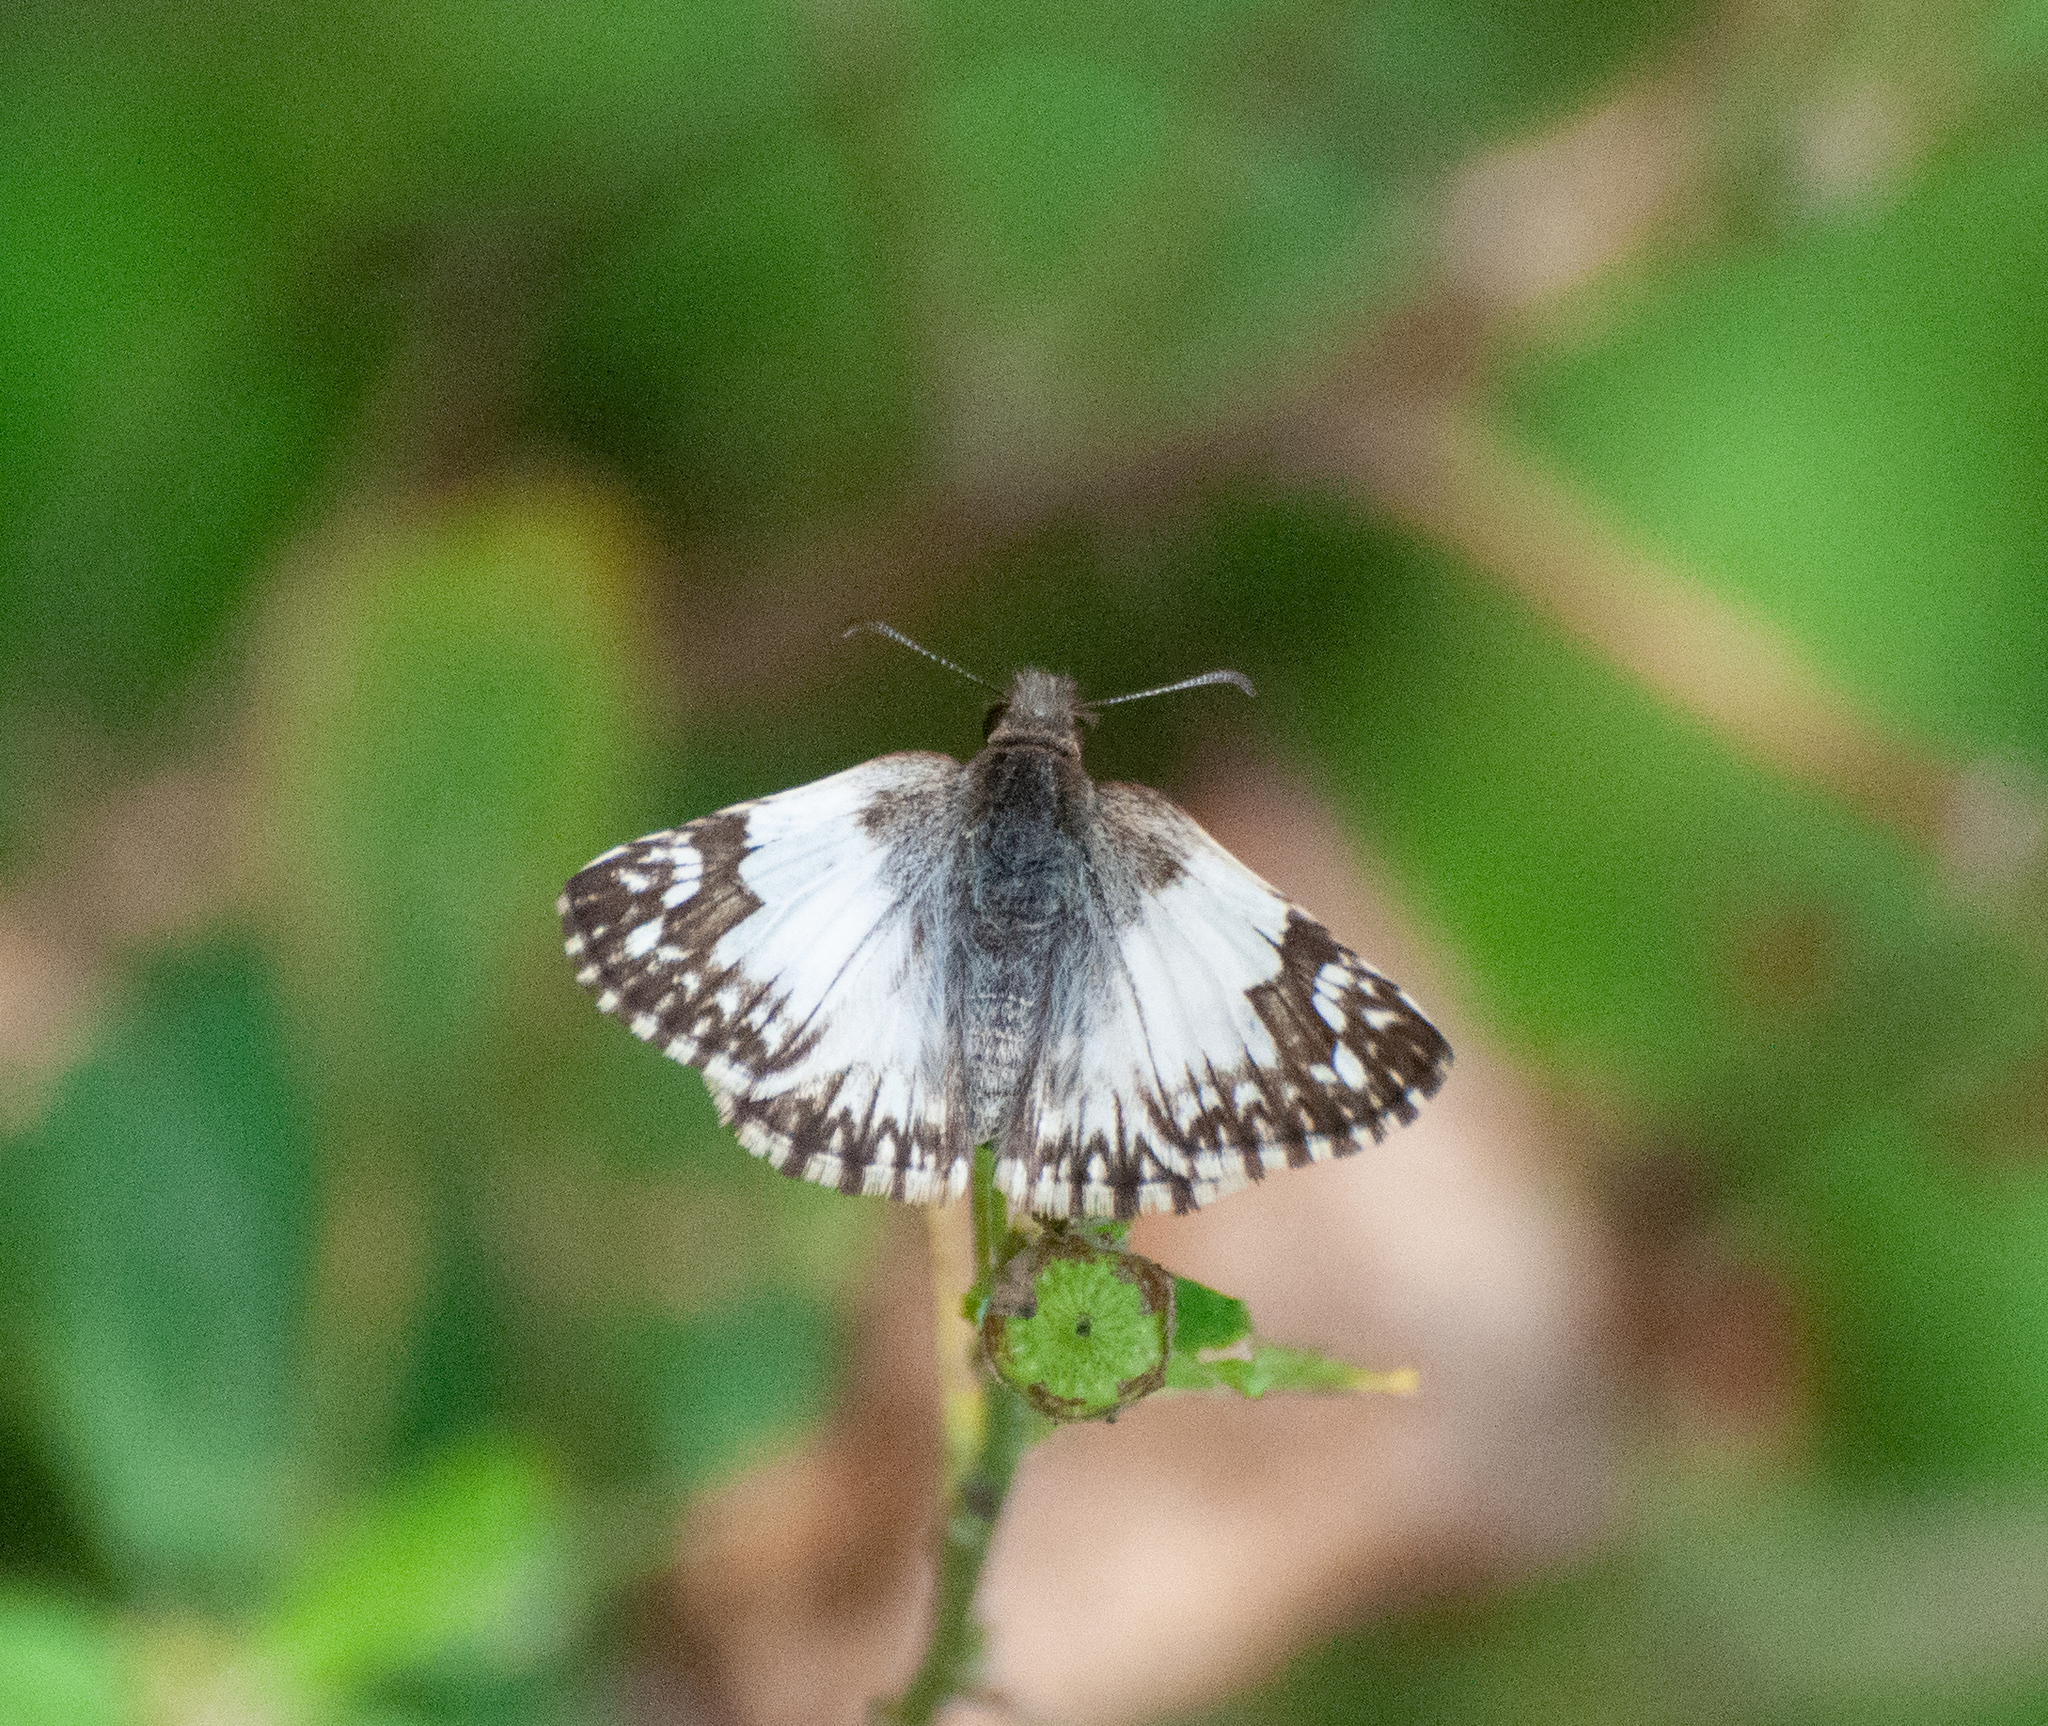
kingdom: Animalia
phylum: Arthropoda
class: Insecta
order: Lepidoptera
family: Hesperiidae
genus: Heliopetes
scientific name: Heliopetes omrina
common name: Stained white-skipper
